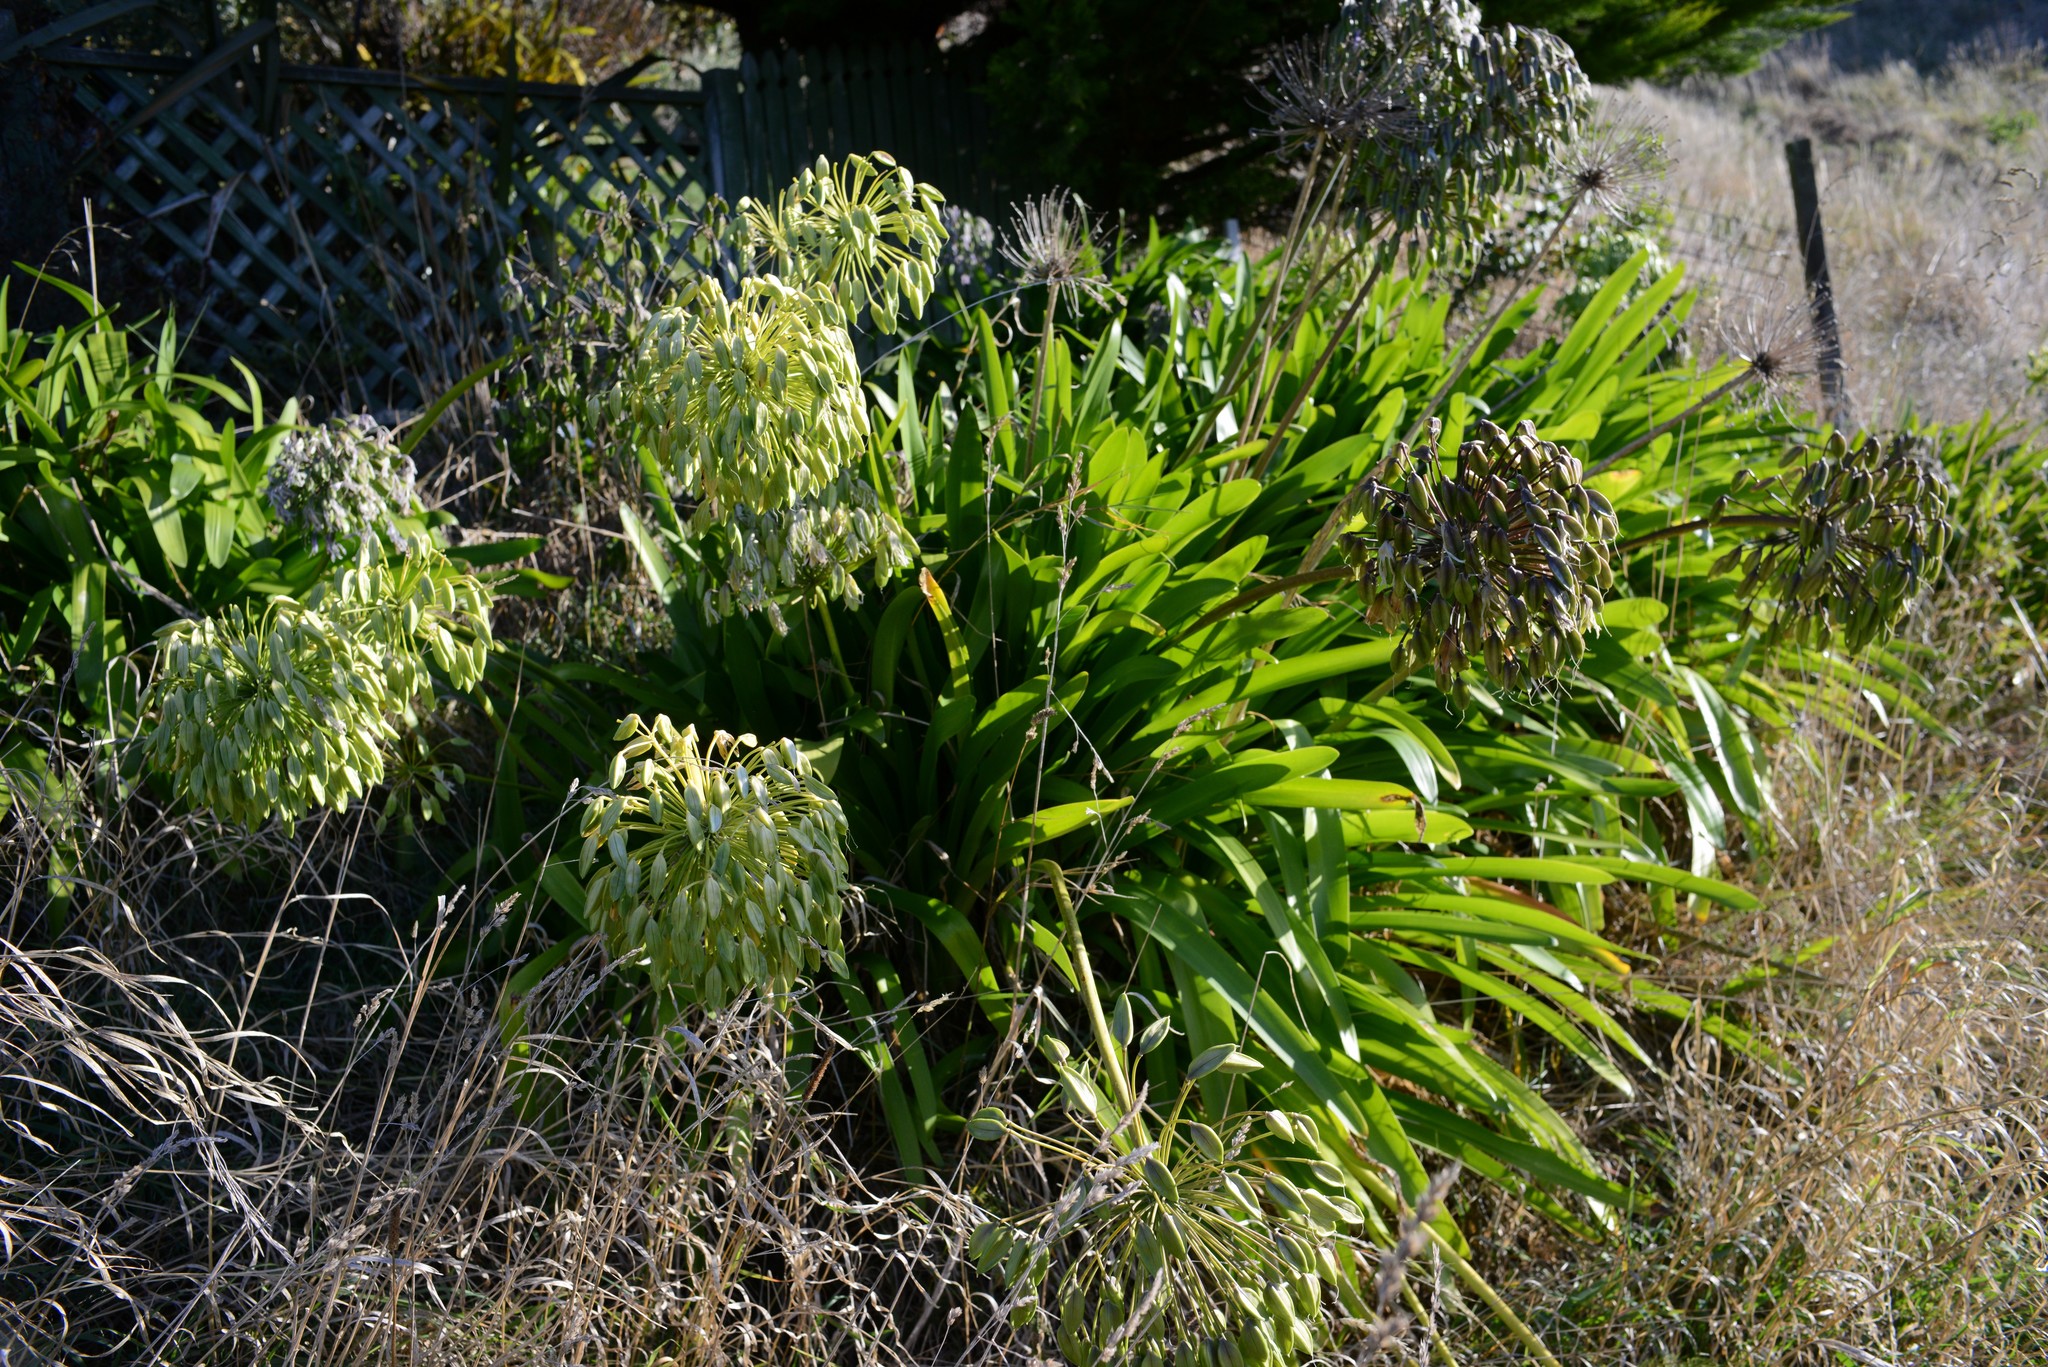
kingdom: Plantae
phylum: Tracheophyta
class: Liliopsida
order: Asparagales
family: Amaryllidaceae
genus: Agapanthus
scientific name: Agapanthus praecox
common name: African-lily
